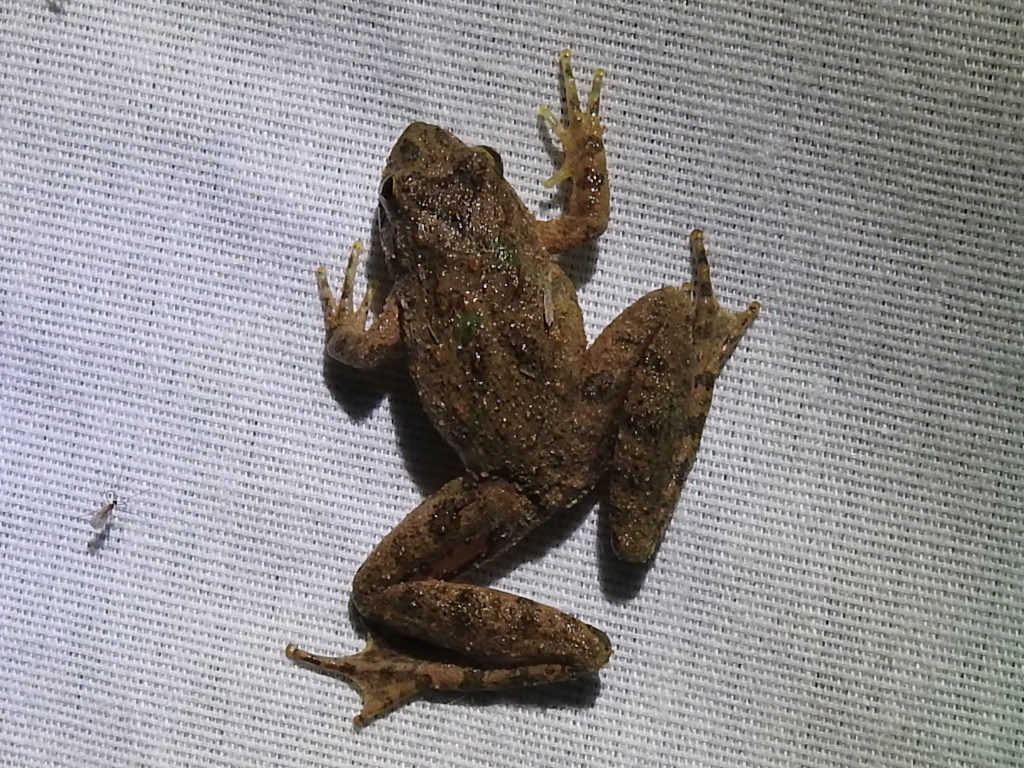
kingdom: Animalia
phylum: Chordata
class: Amphibia
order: Anura
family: Hylidae
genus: Acris
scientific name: Acris blanchardi
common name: Blanchard's cricket frog
